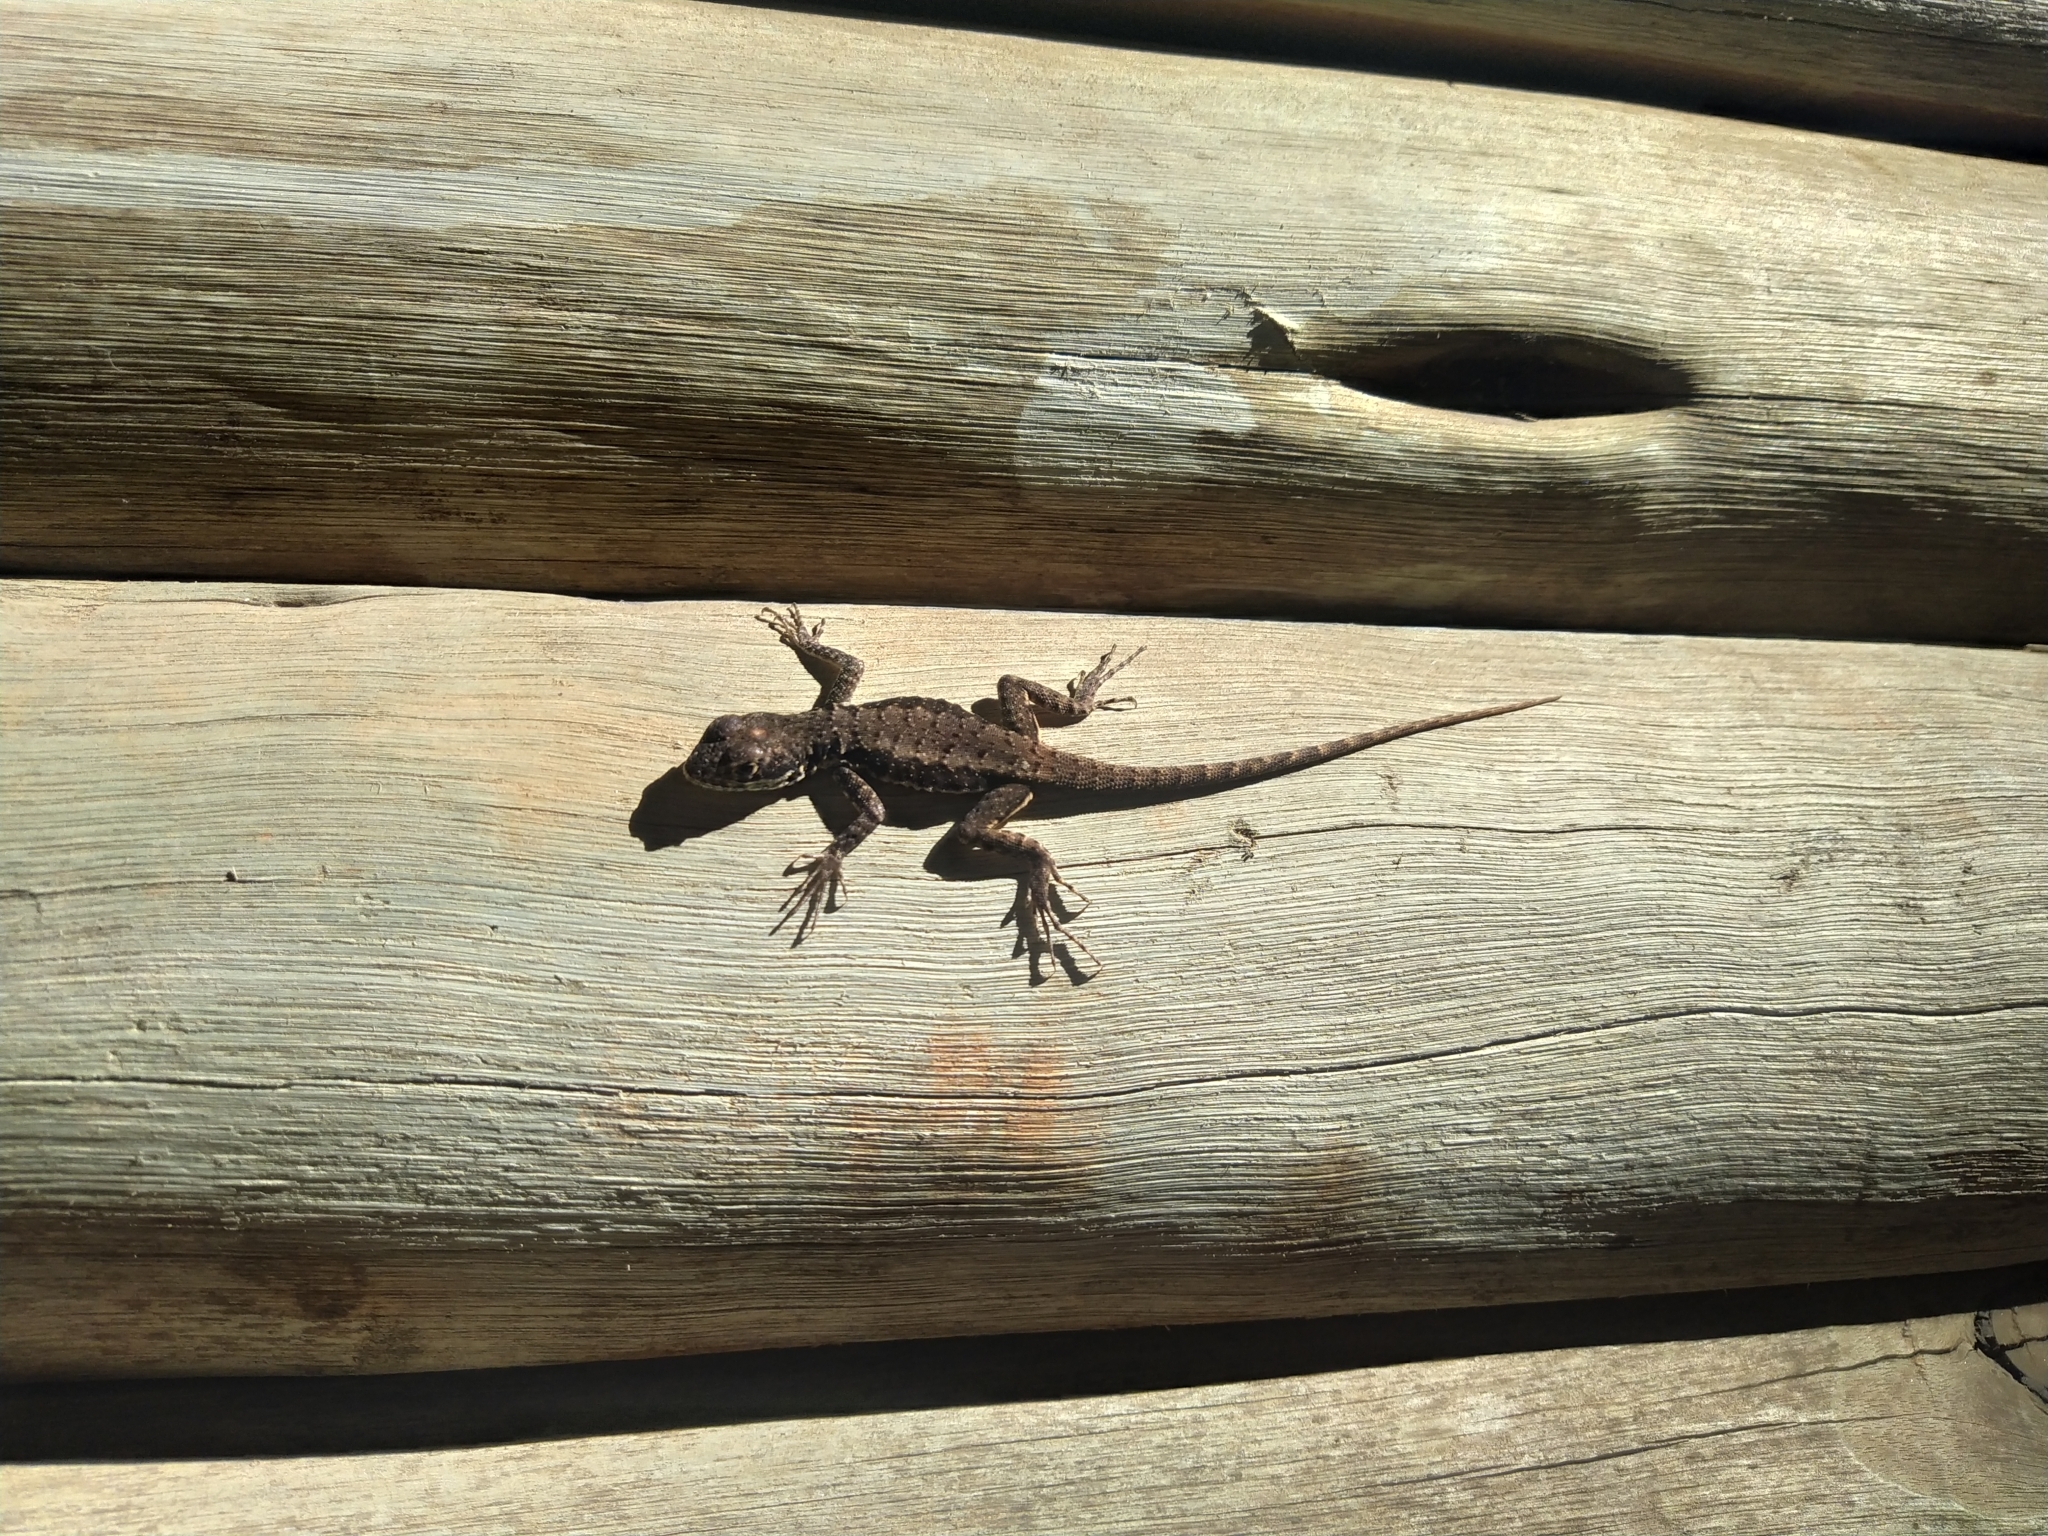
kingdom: Animalia
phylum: Chordata
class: Squamata
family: Tropiduridae
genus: Tropidurus
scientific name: Tropidurus torquatus
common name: Amazon lava lizard
